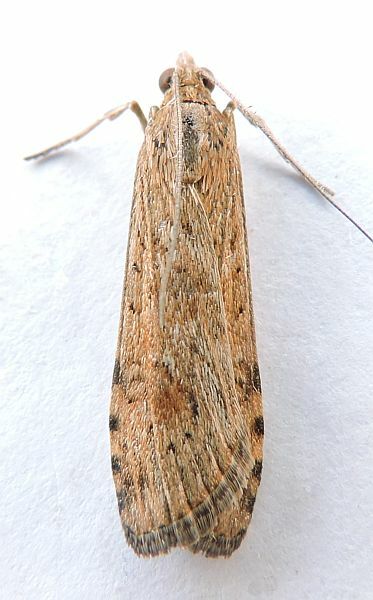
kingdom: Animalia
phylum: Arthropoda
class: Insecta
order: Lepidoptera
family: Crambidae
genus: Nomophila
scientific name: Nomophila nearctica
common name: American rush veneer
